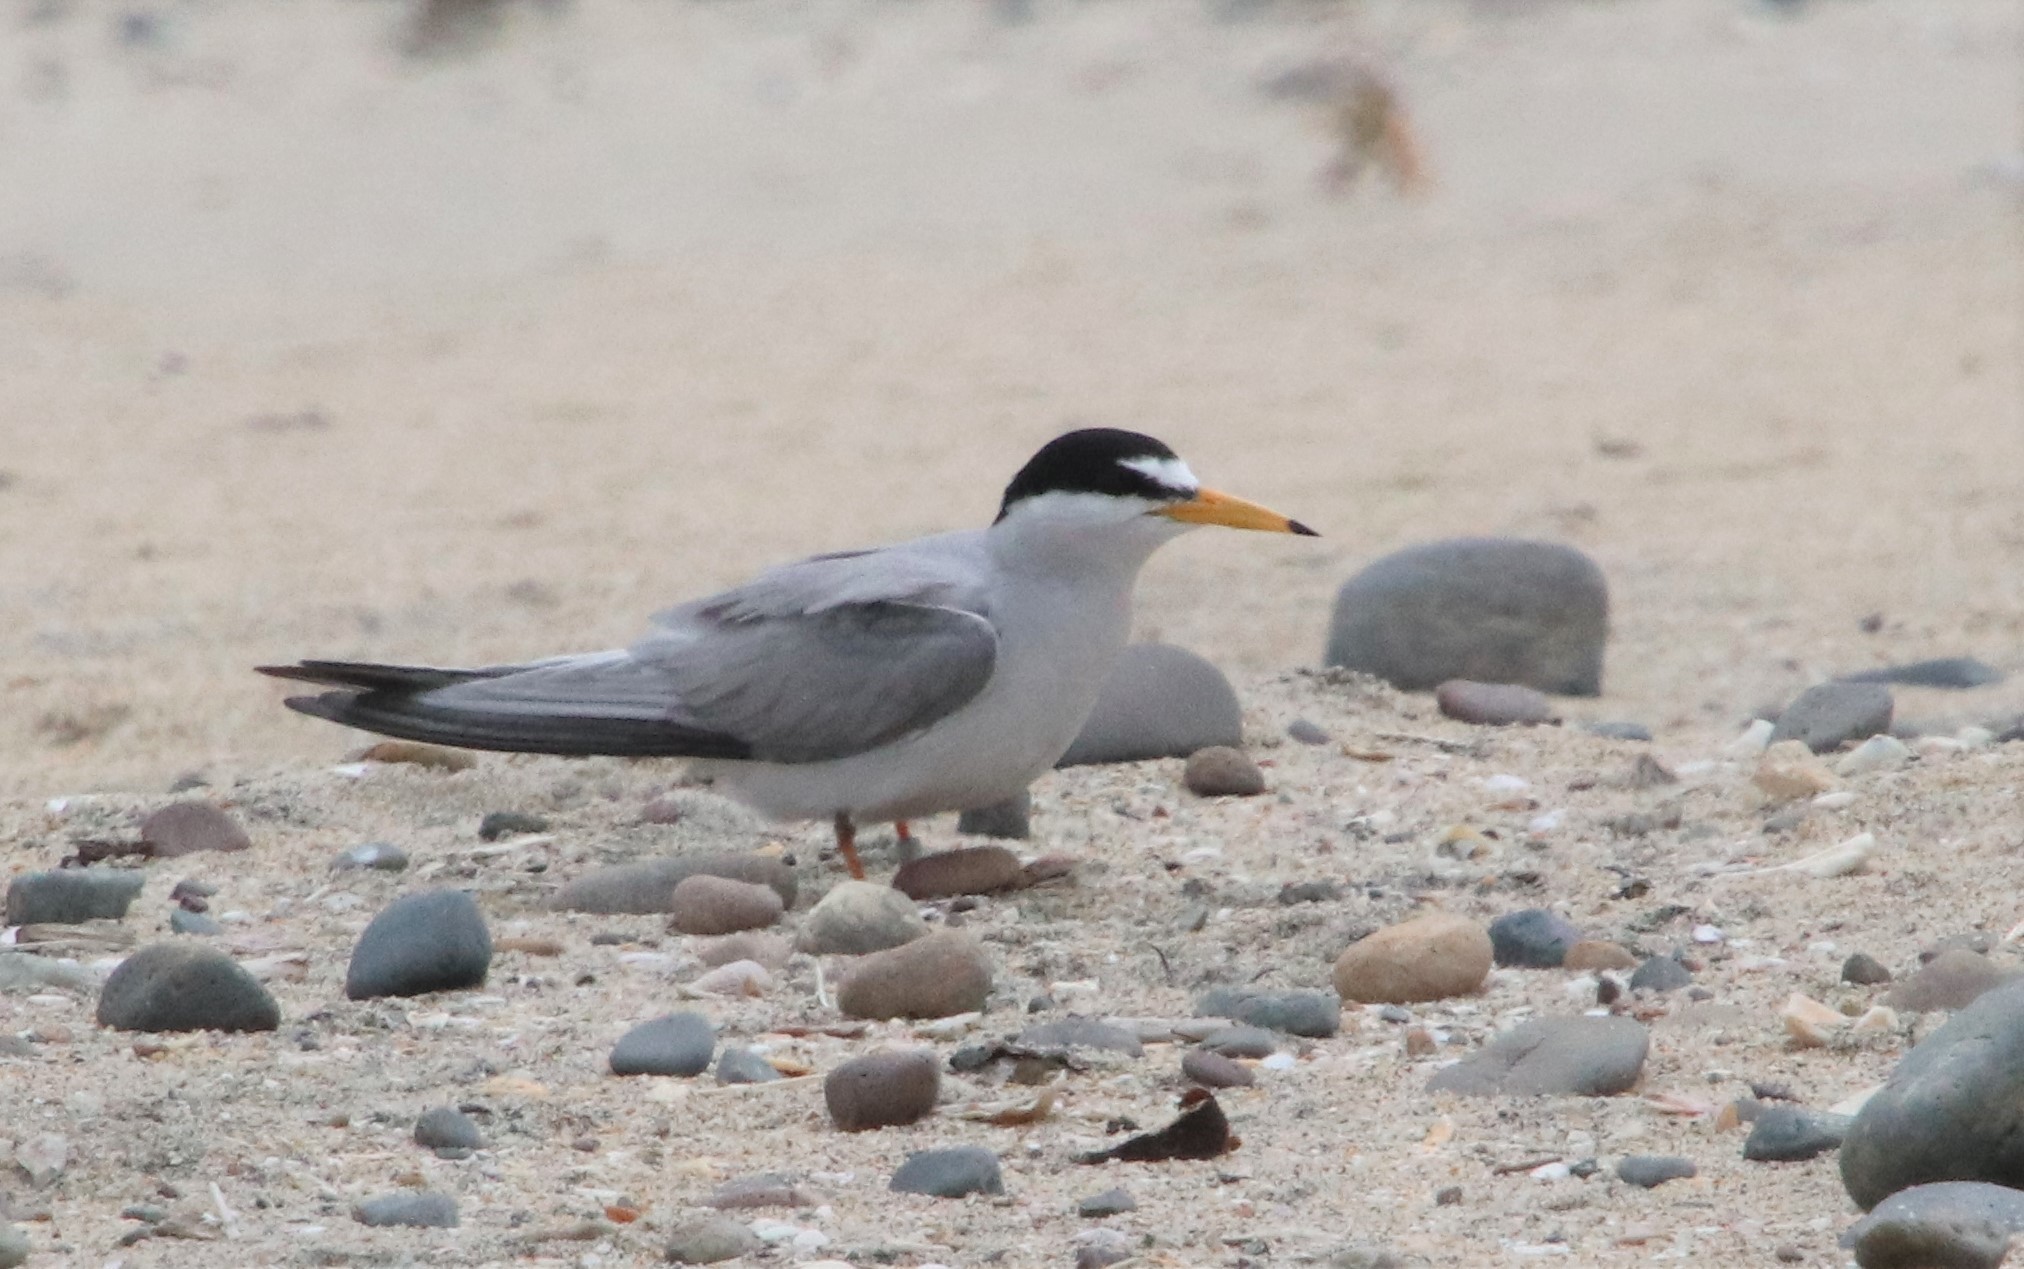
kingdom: Animalia
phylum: Chordata
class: Aves
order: Charadriiformes
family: Laridae
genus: Sternula
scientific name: Sternula antillarum
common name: Least tern
